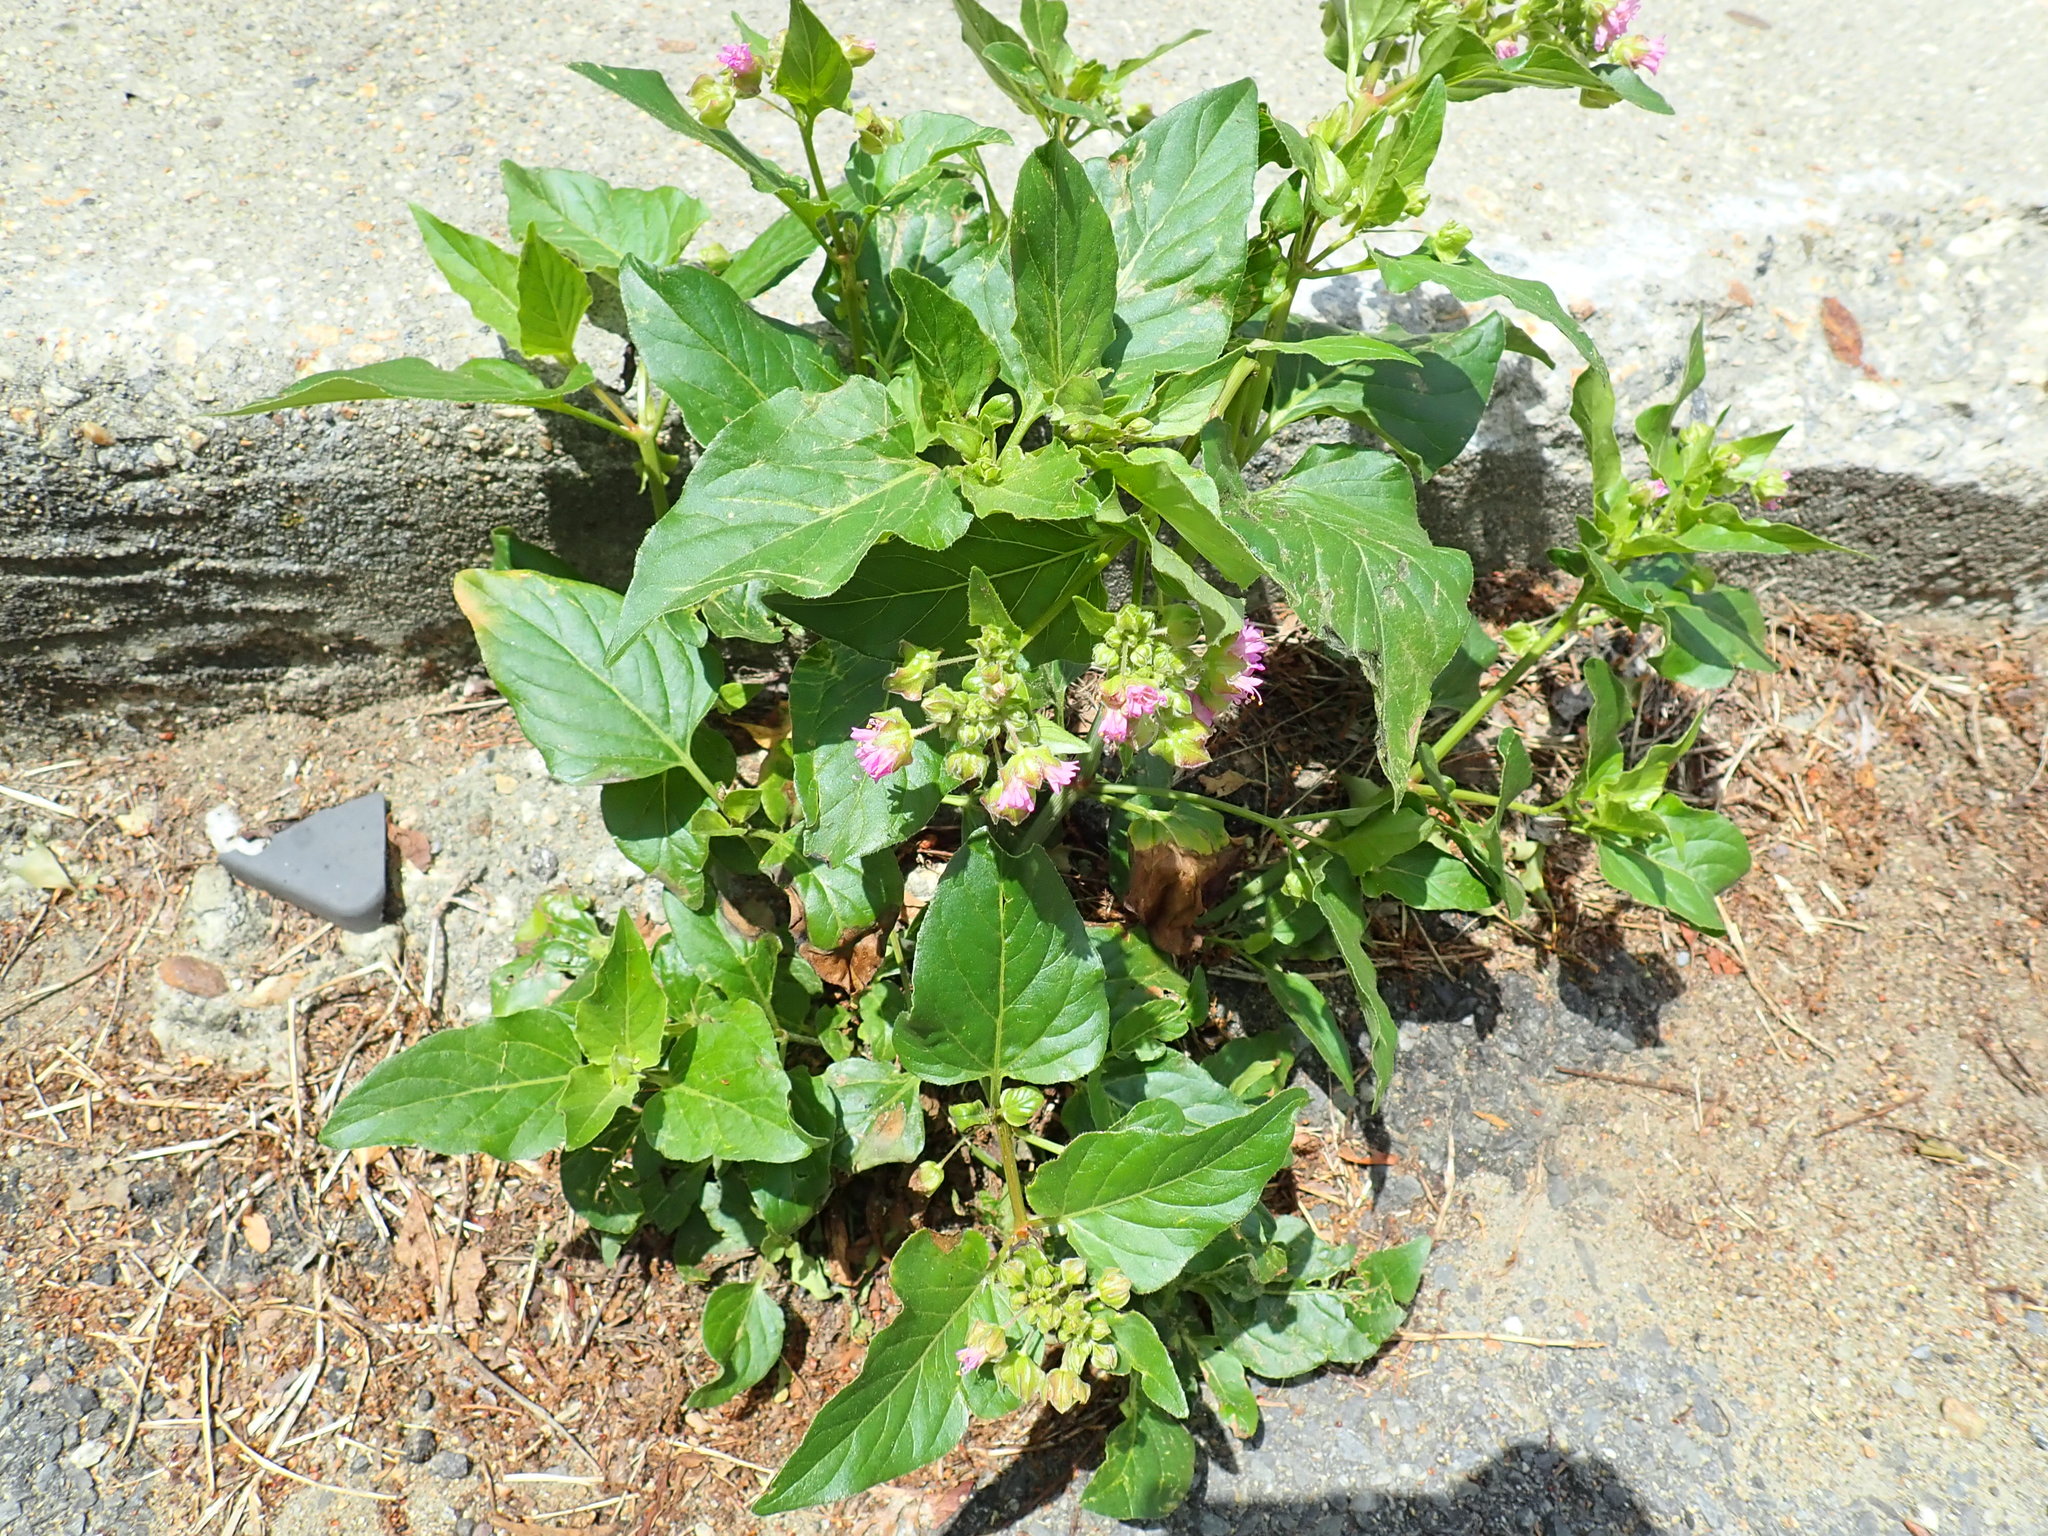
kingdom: Plantae
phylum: Tracheophyta
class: Magnoliopsida
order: Caryophyllales
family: Nyctaginaceae
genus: Mirabilis
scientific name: Mirabilis nyctaginea
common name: Umbrella wort
